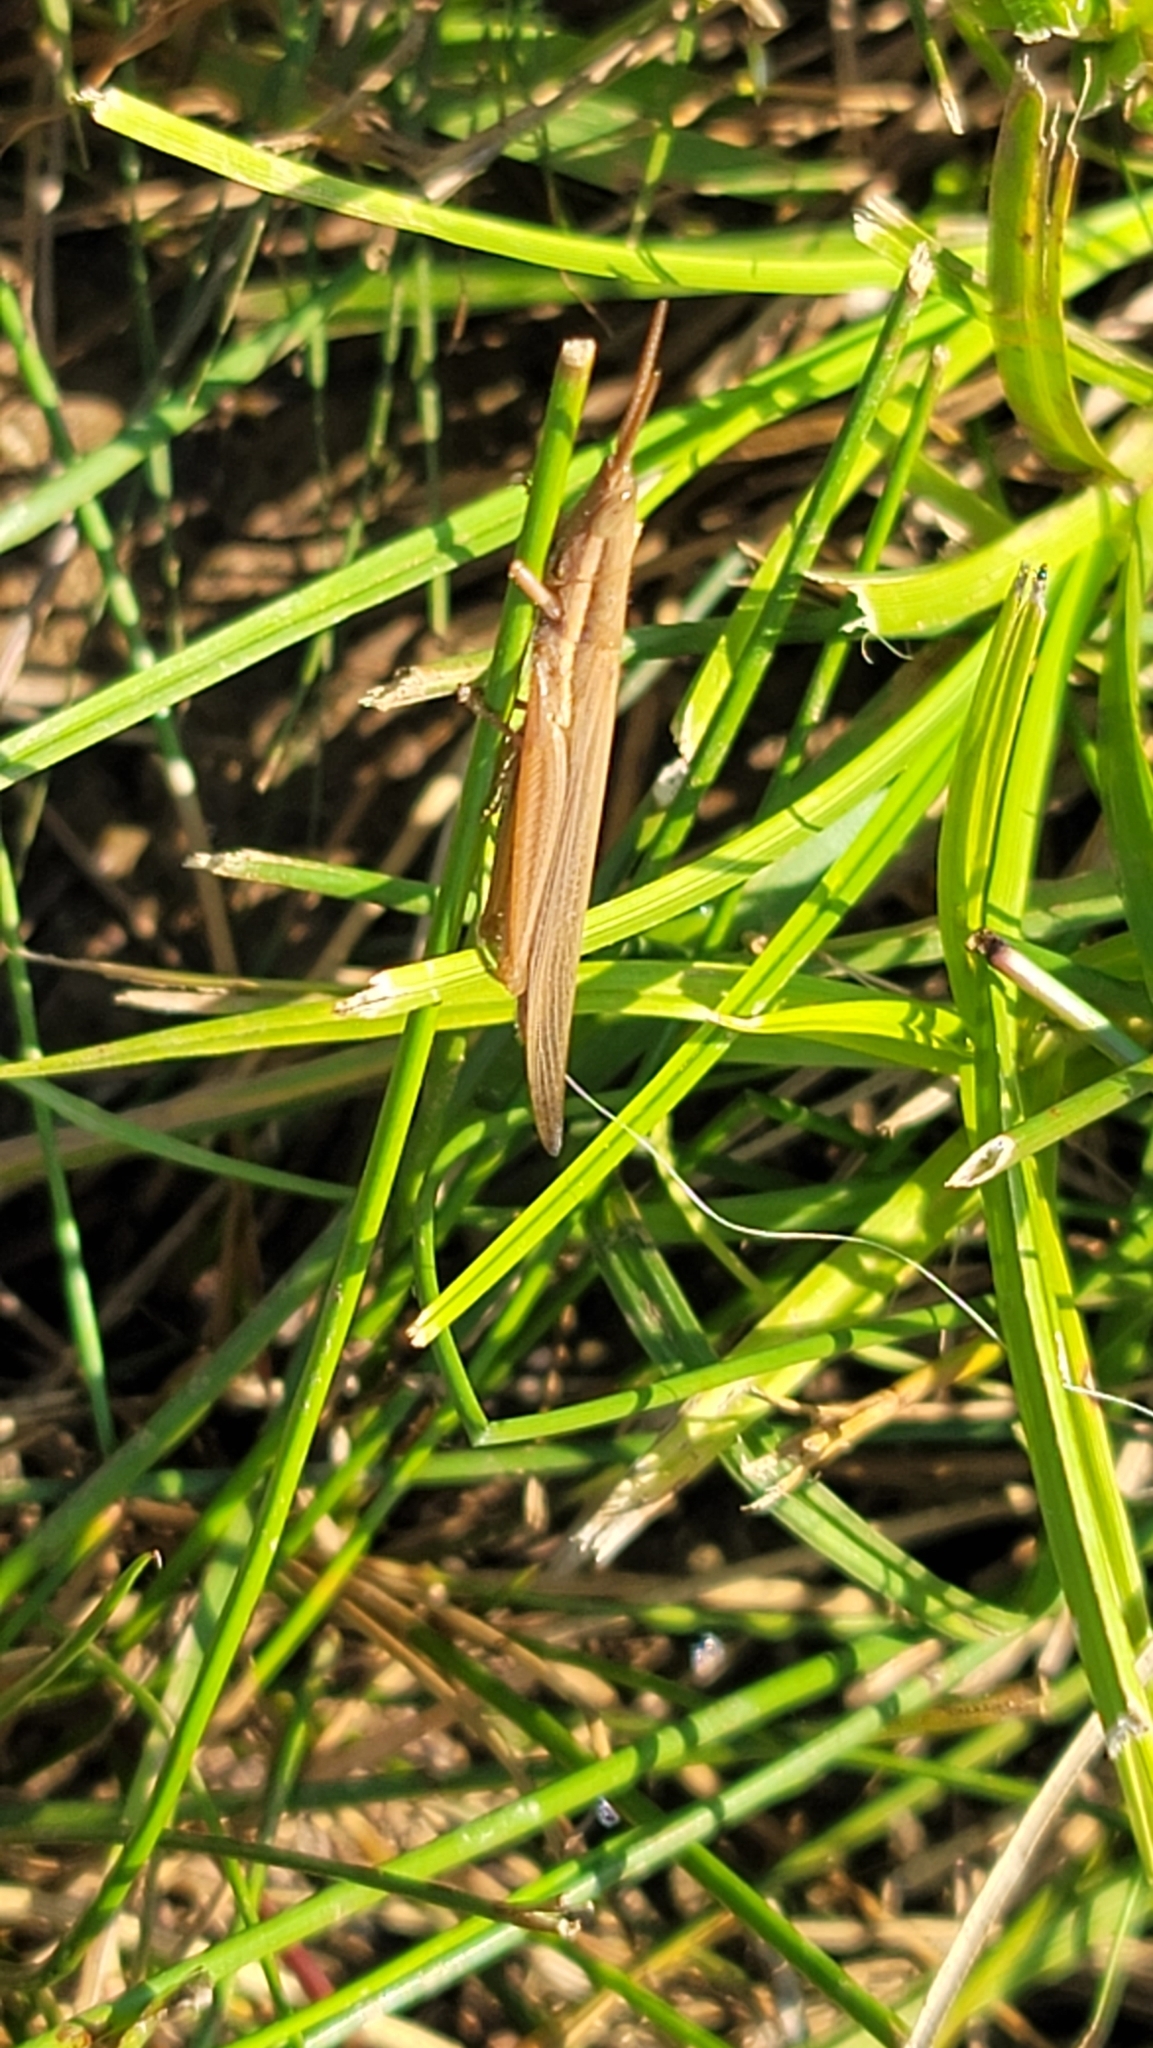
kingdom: Animalia
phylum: Arthropoda
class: Insecta
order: Orthoptera
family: Acrididae
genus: Leptysma
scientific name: Leptysma marginicollis
